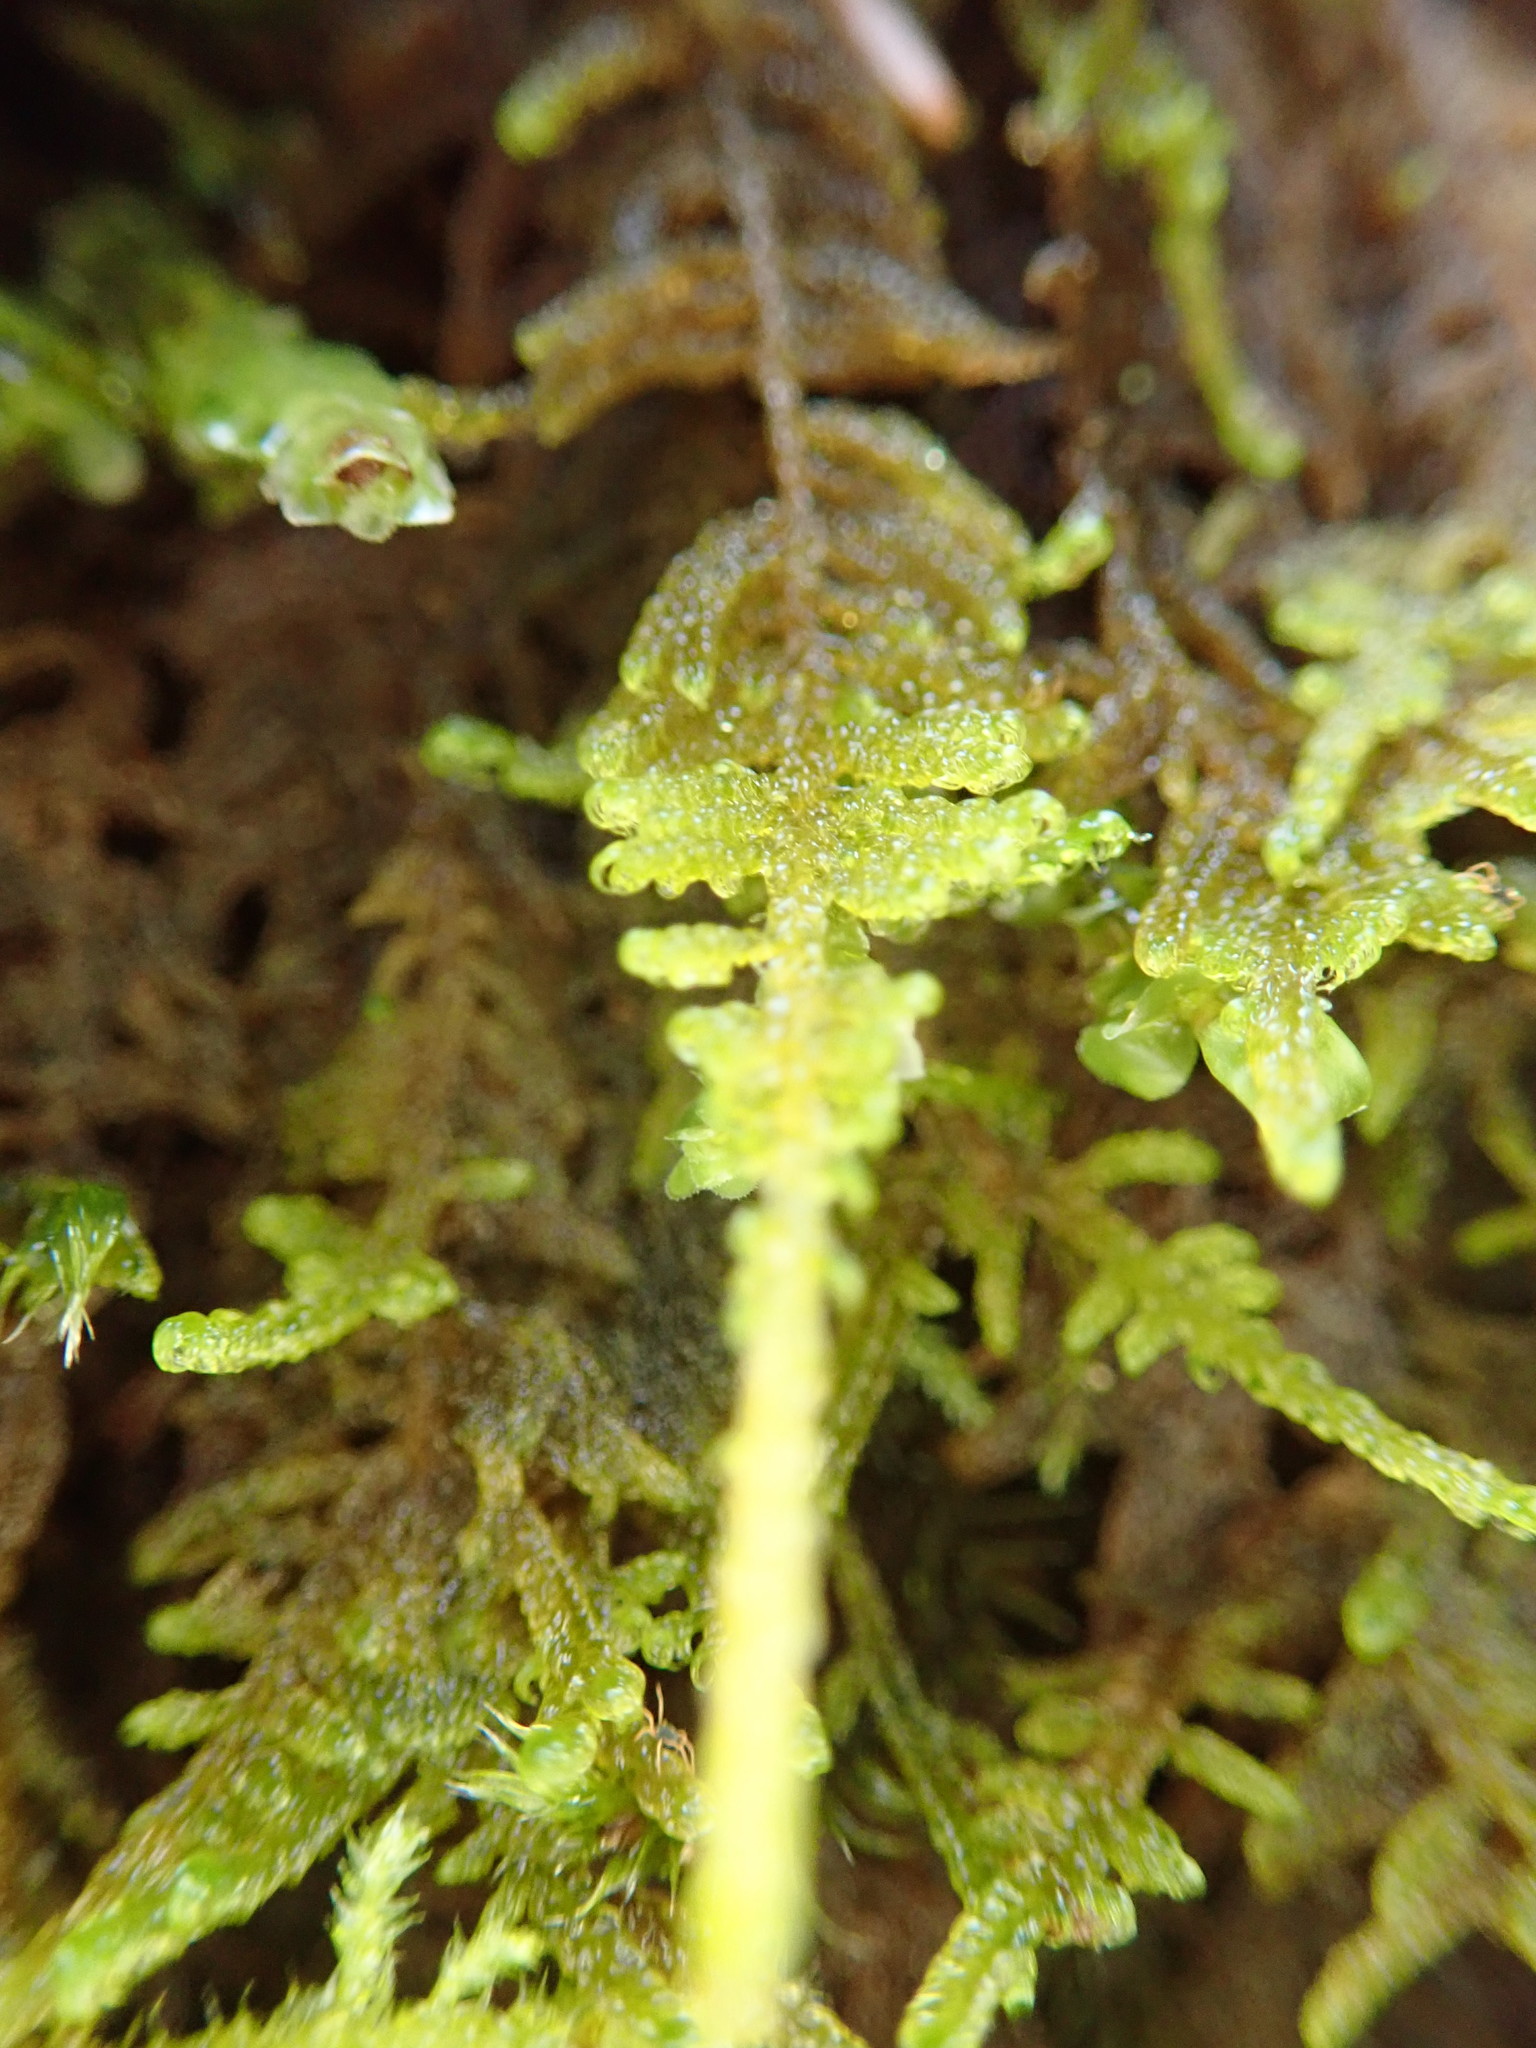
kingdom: Plantae
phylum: Bryophyta
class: Bryopsida
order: Hypnales
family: Stereodontaceae
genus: Stereodon
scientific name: Stereodon subimponens
